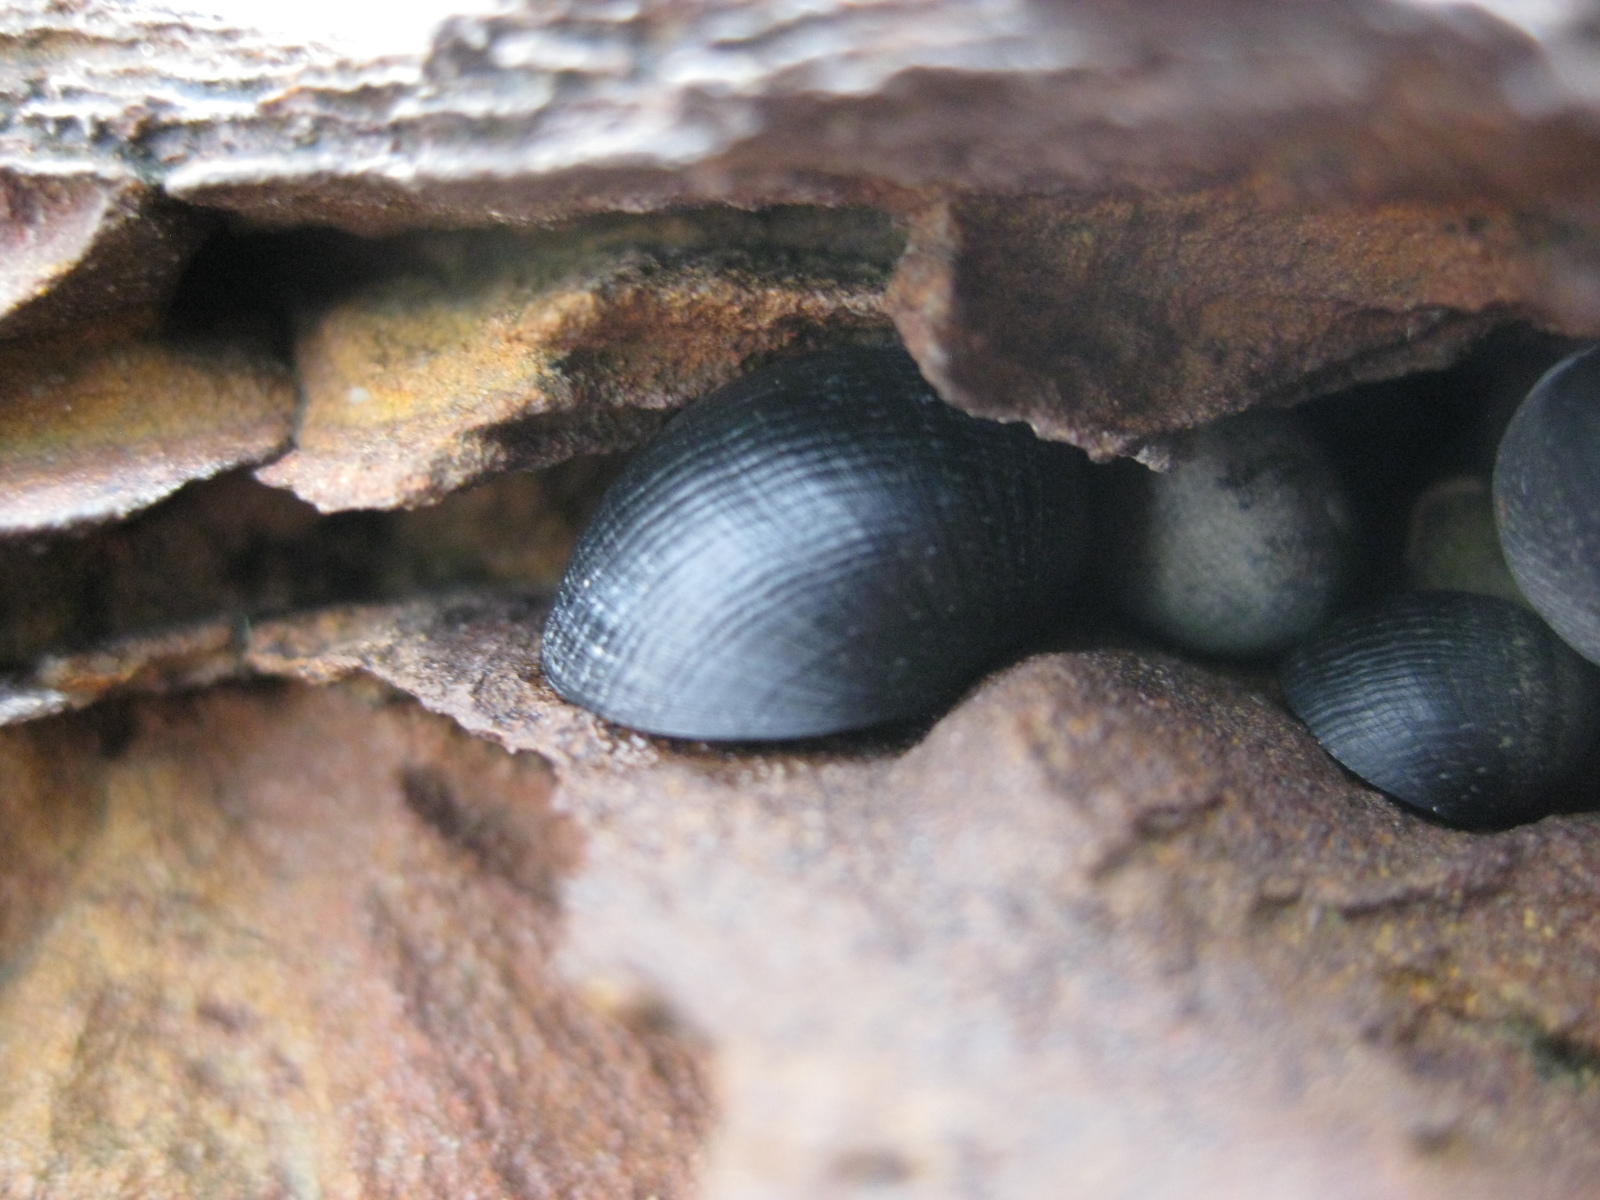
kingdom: Animalia
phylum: Mollusca
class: Gastropoda
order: Cycloneritida
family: Neritidae
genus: Nerita
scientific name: Nerita melanotragus
